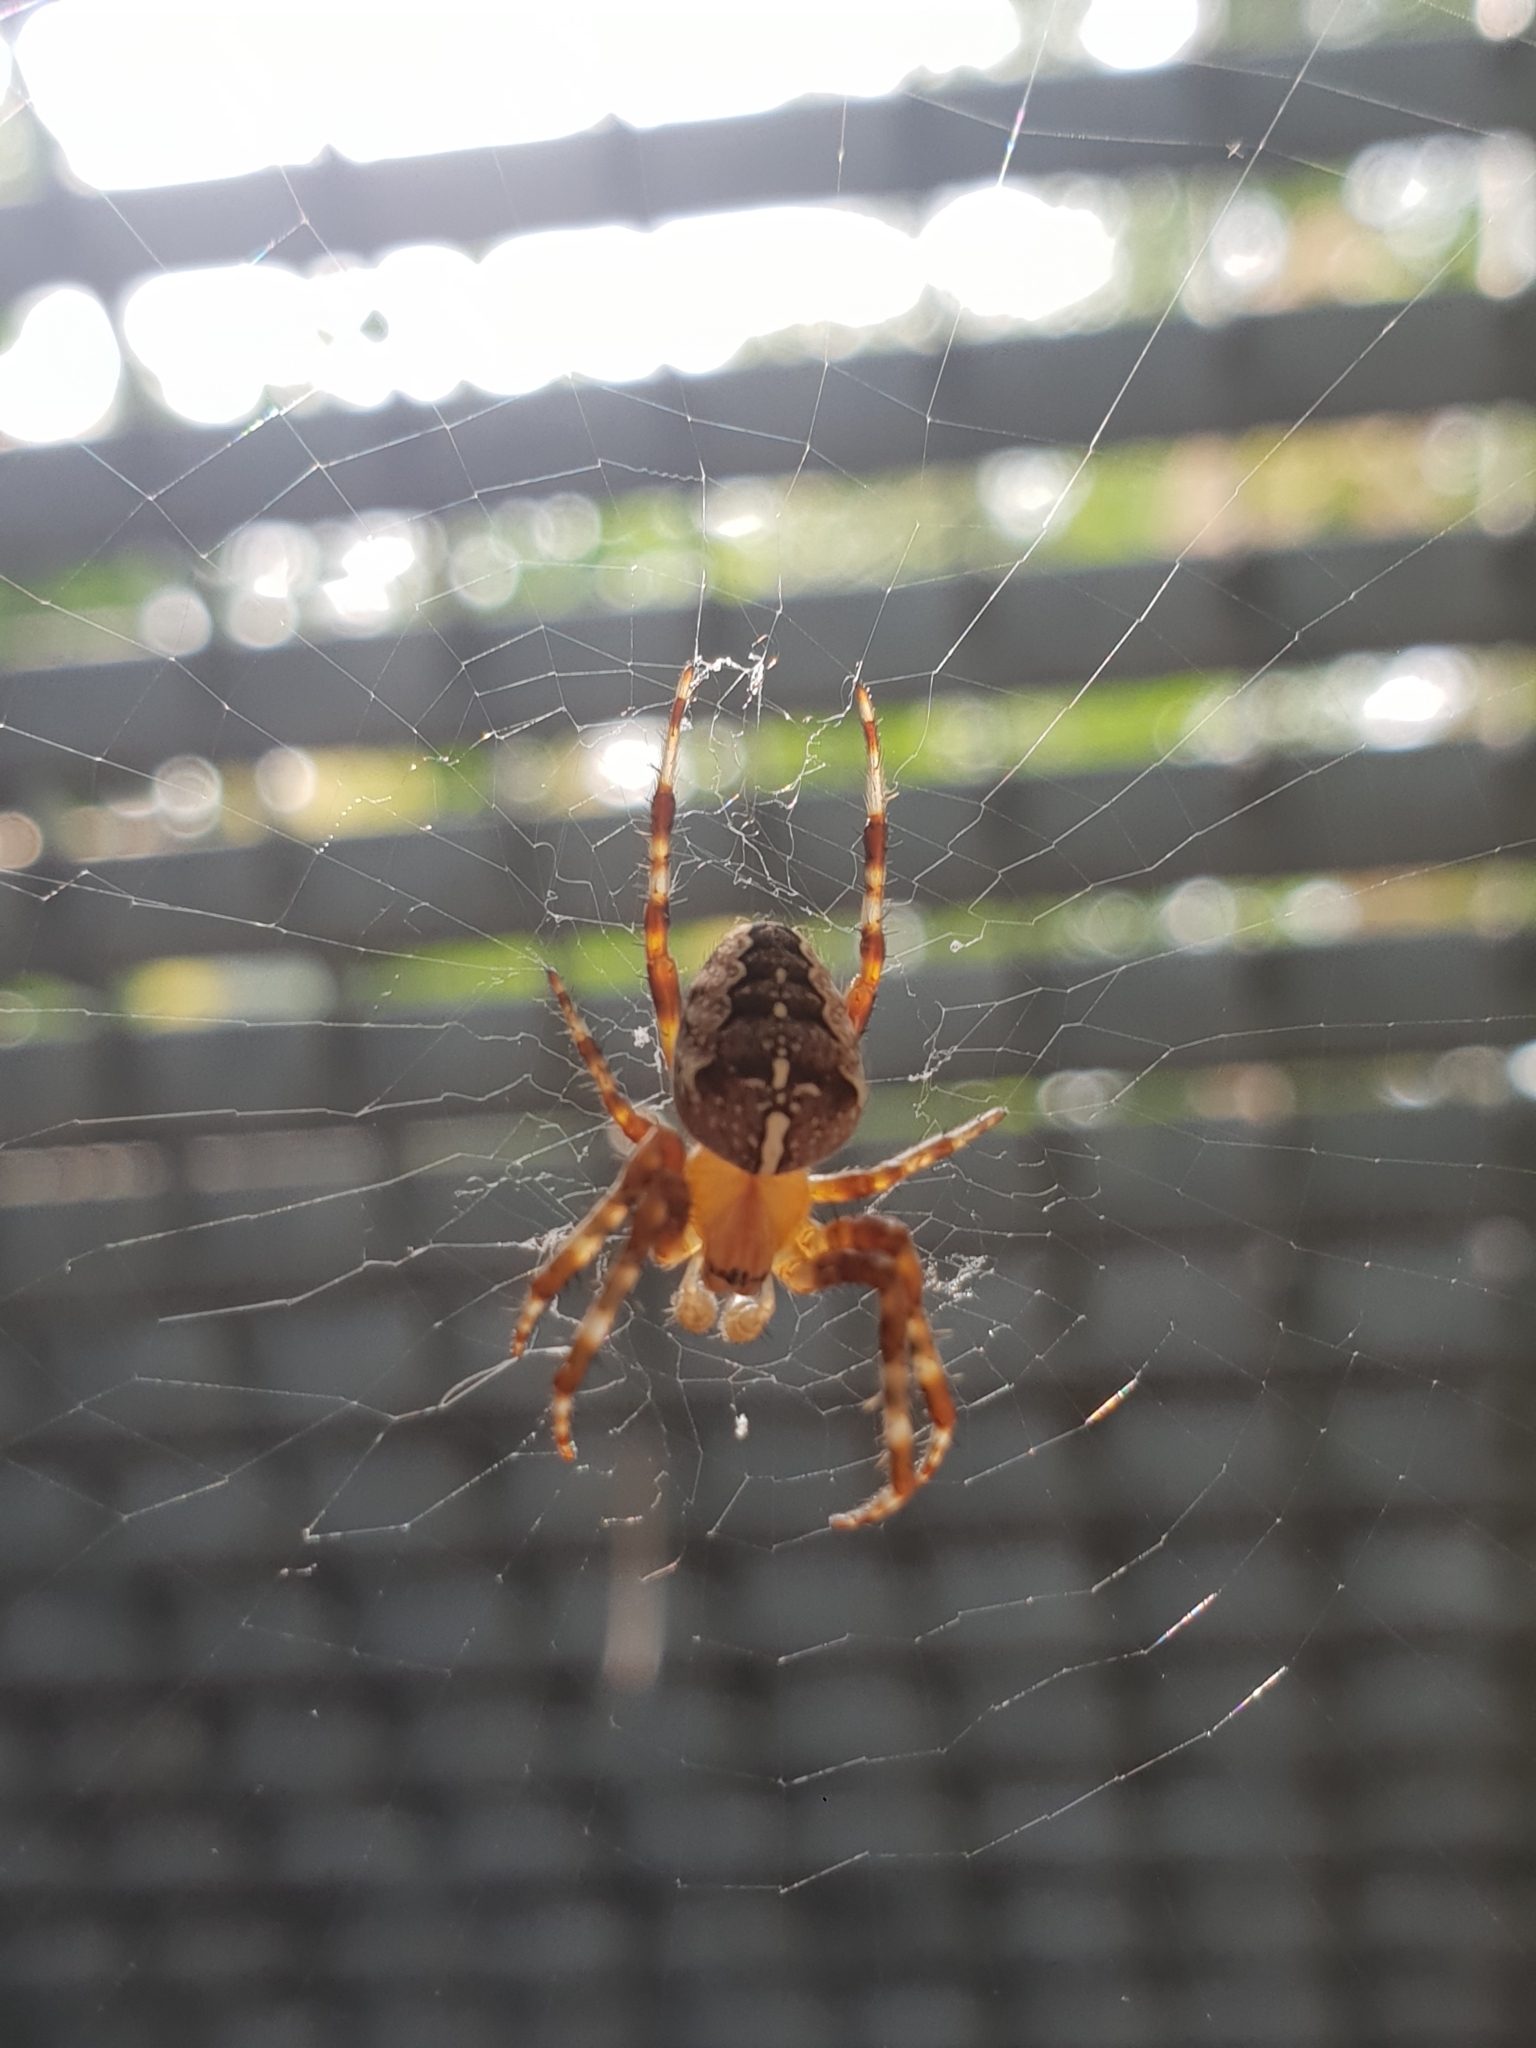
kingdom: Animalia
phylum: Arthropoda
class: Arachnida
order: Araneae
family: Araneidae
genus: Araneus
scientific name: Araneus diadematus
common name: Cross orbweaver
